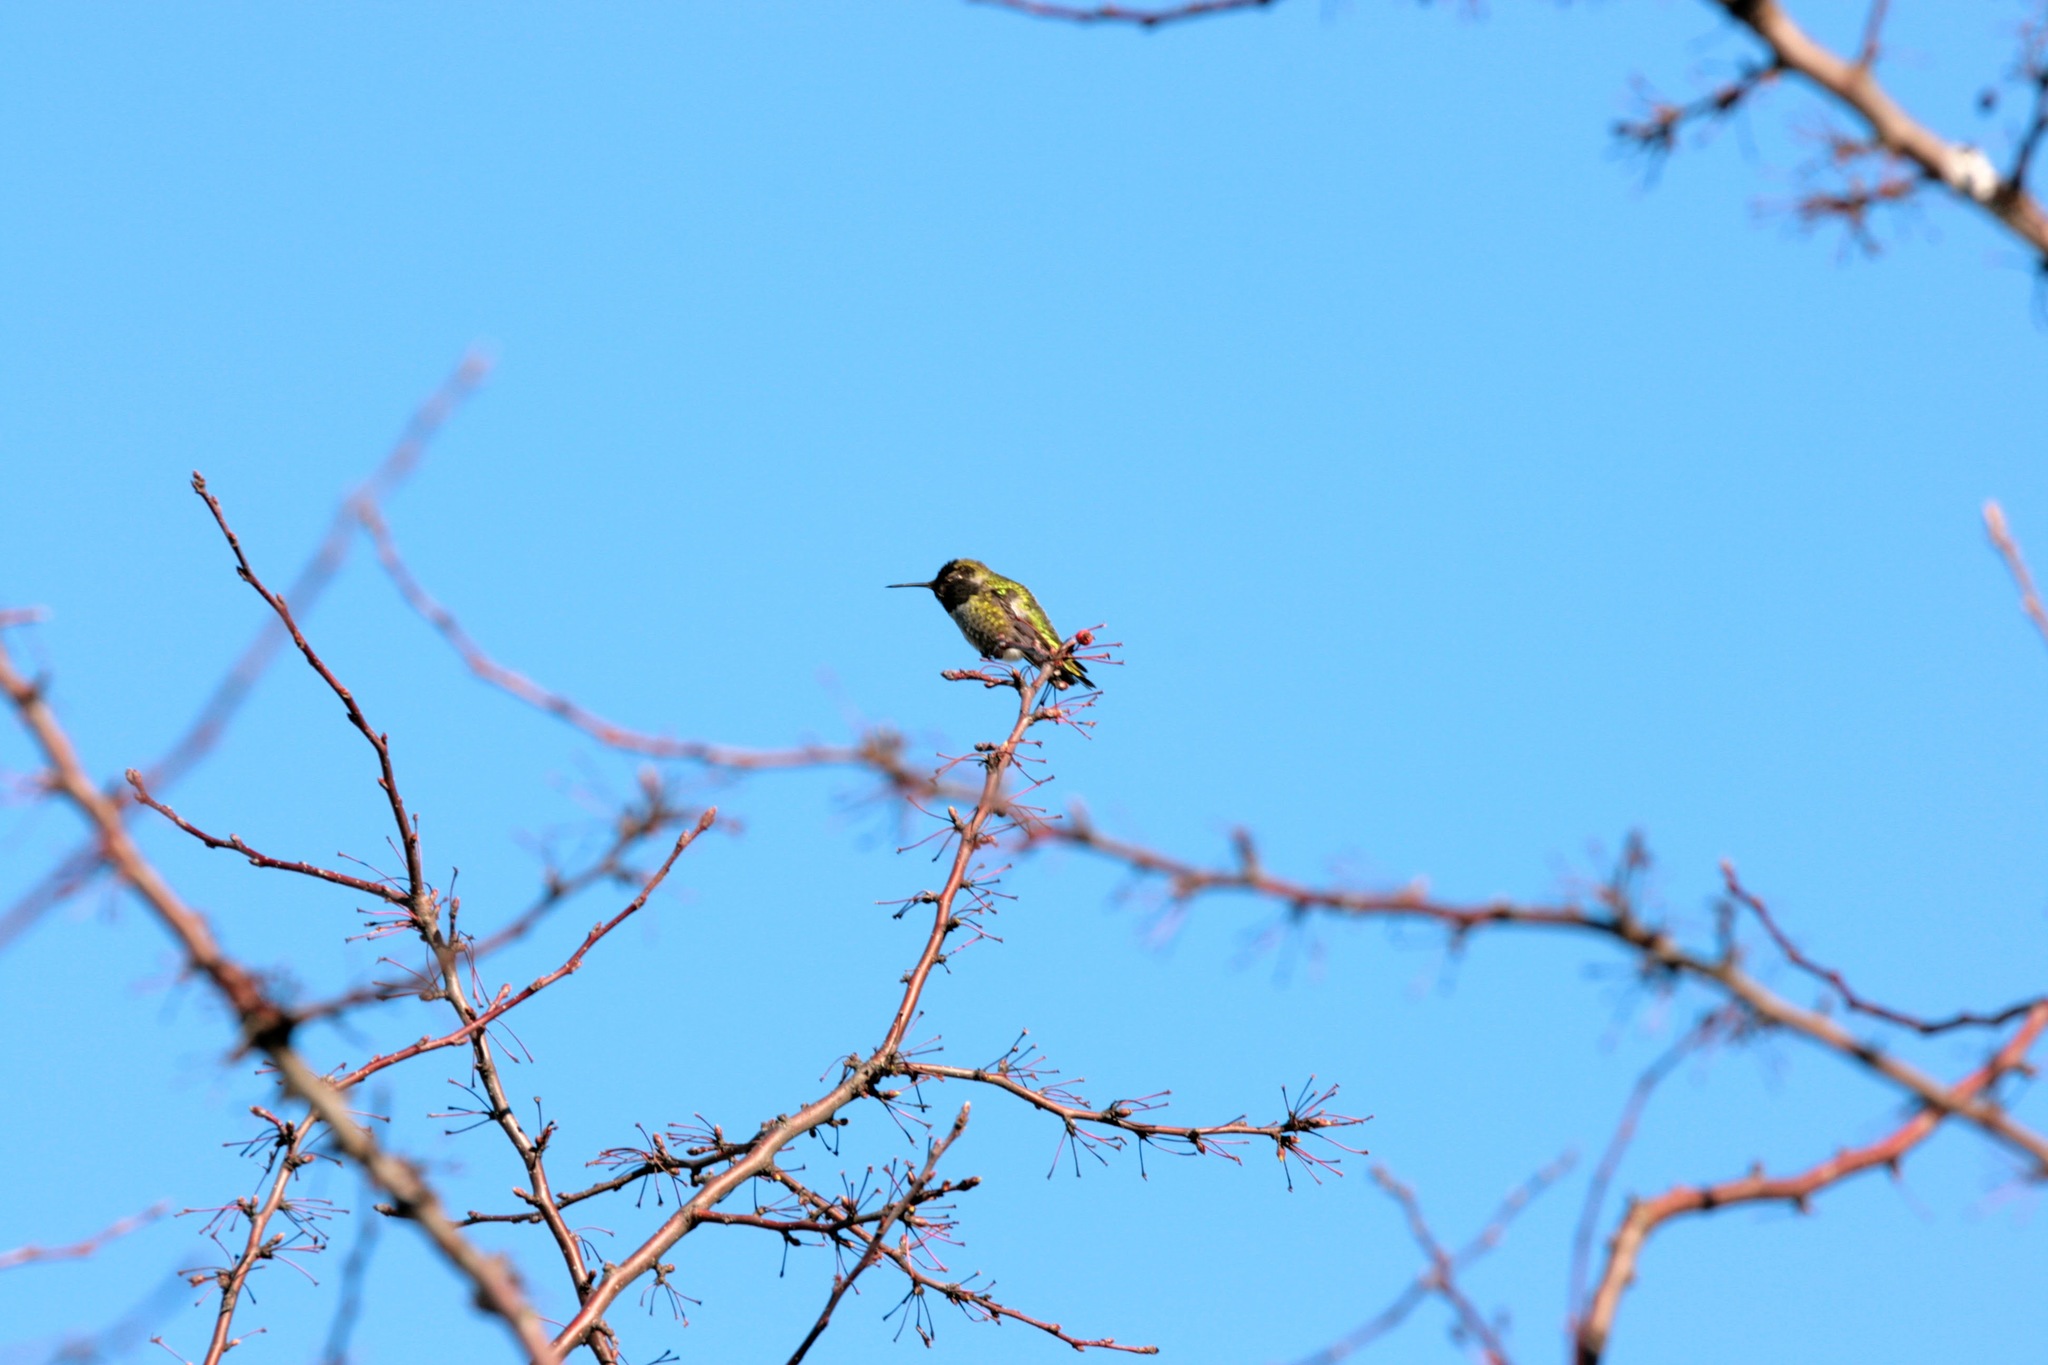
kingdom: Animalia
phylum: Chordata
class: Aves
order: Apodiformes
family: Trochilidae
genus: Calypte
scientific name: Calypte anna
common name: Anna's hummingbird
